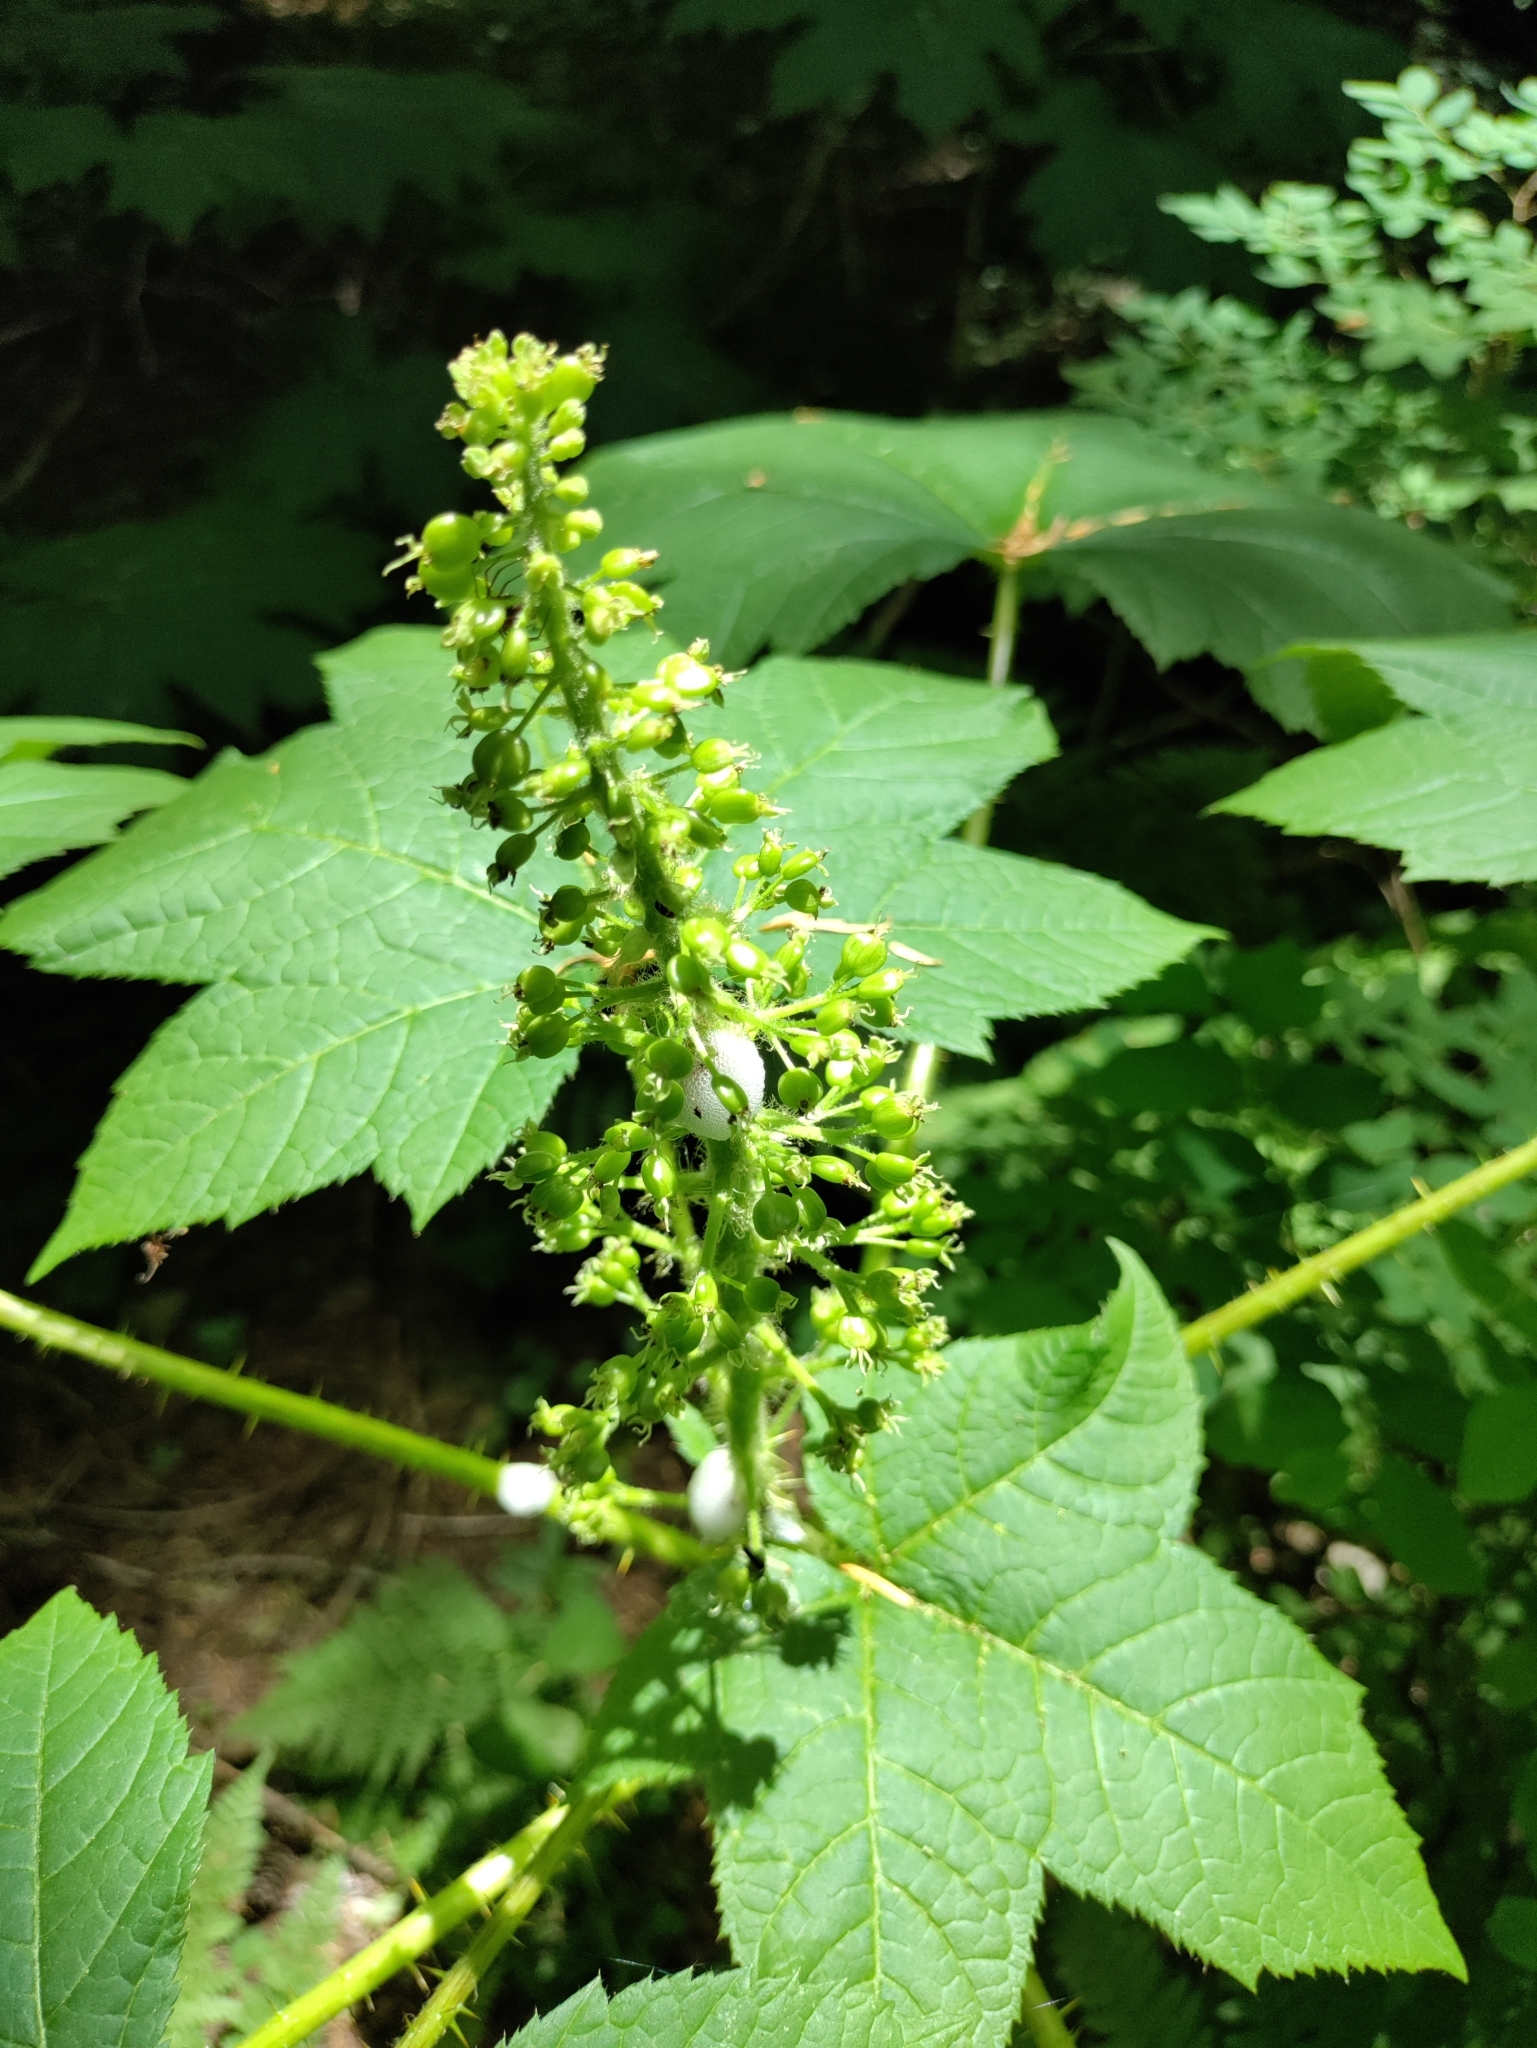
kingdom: Plantae
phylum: Tracheophyta
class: Magnoliopsida
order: Apiales
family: Araliaceae
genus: Oplopanax
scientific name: Oplopanax horridus
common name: Devil's walking-stick
